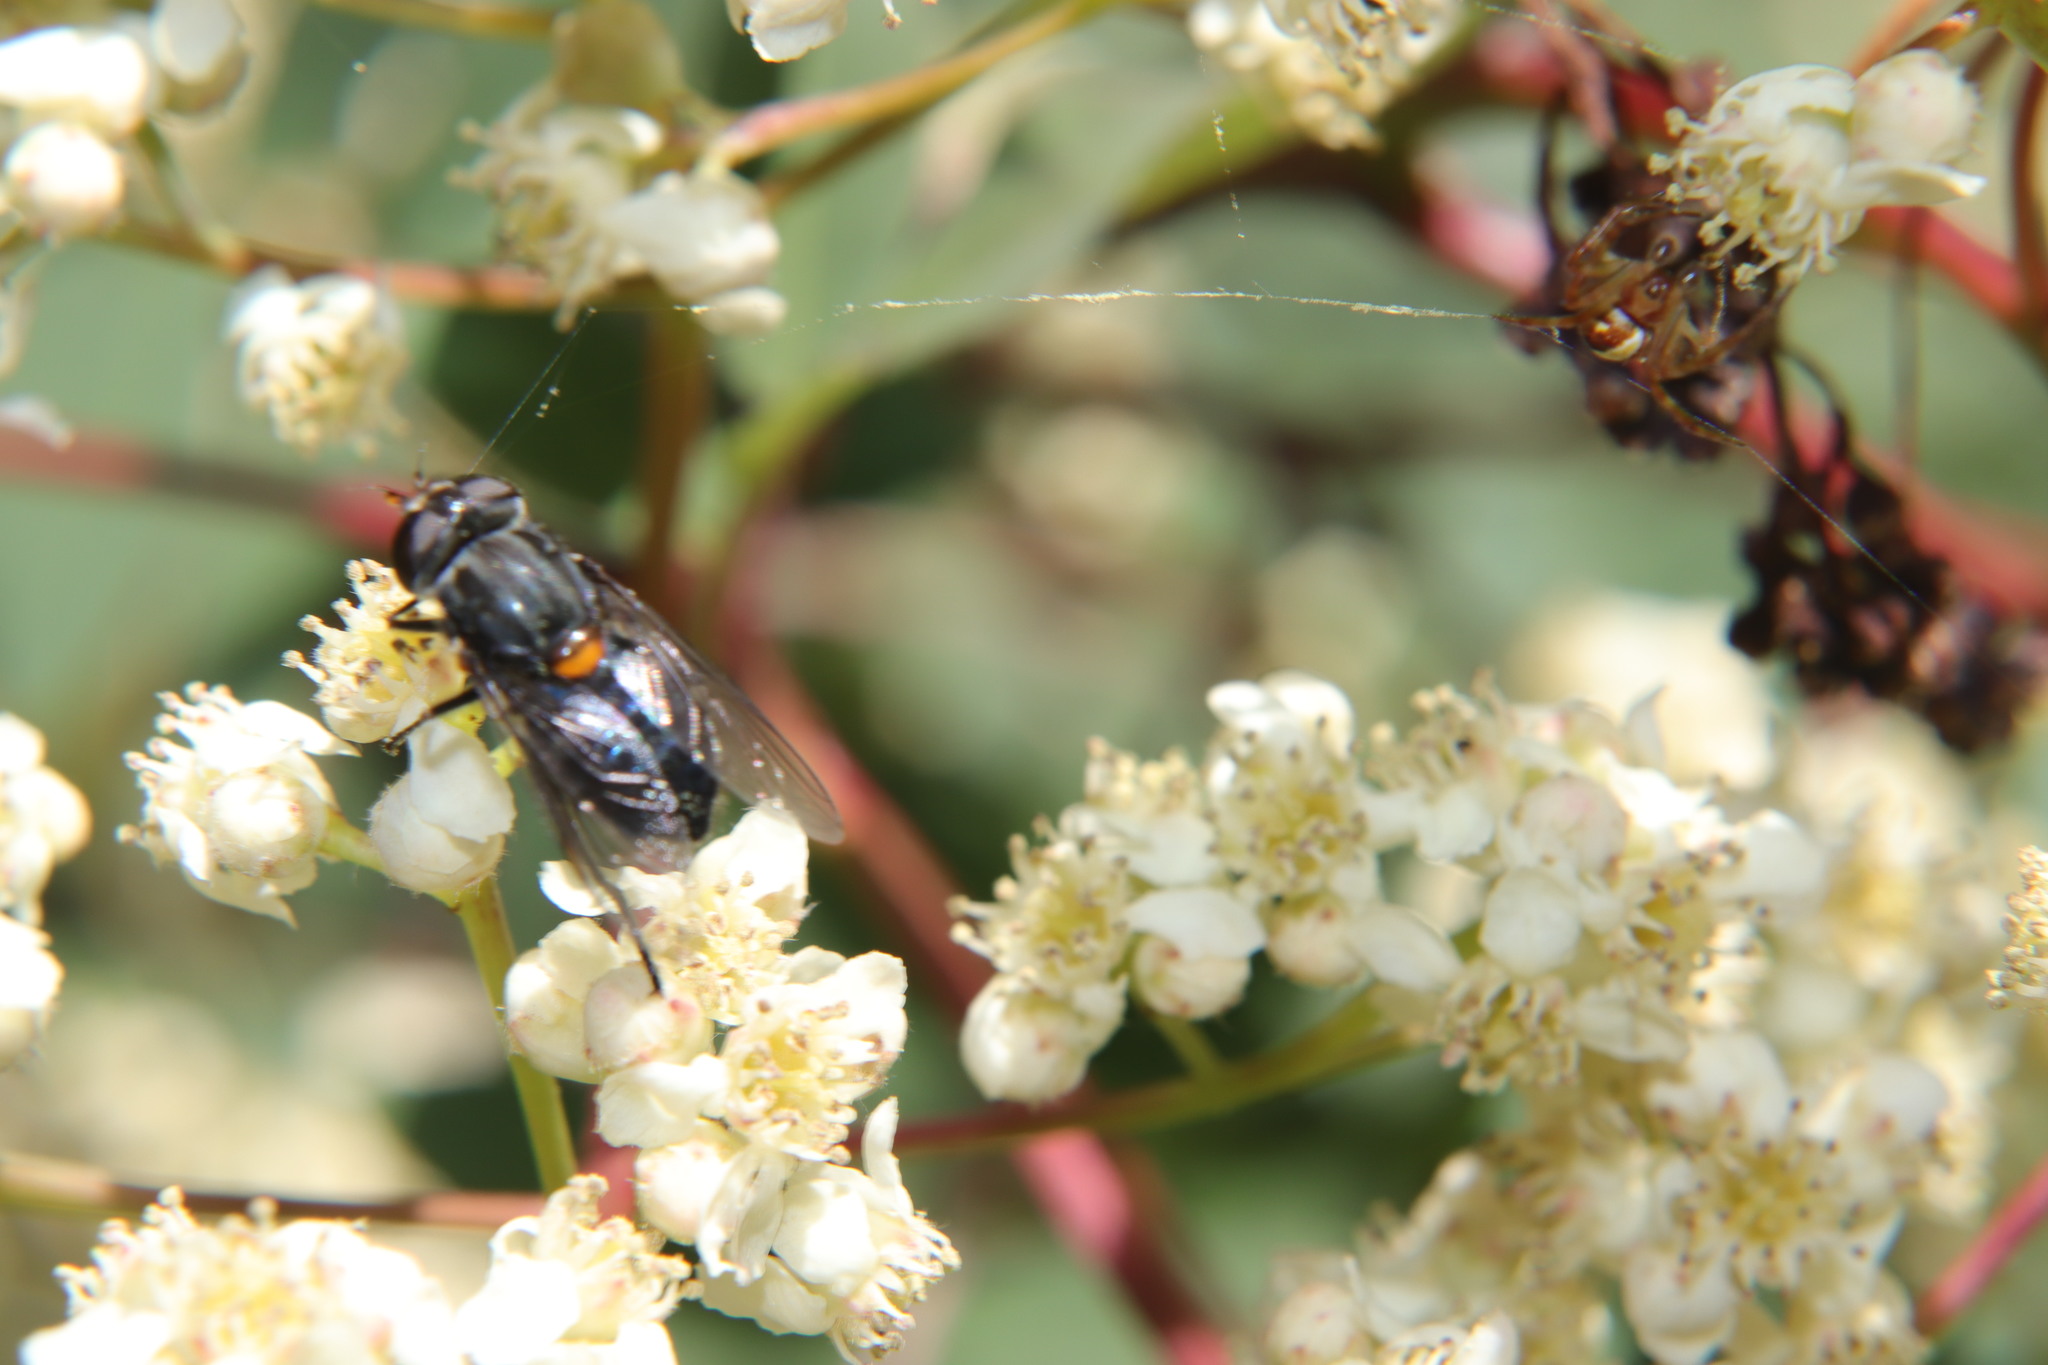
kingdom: Animalia
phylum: Arthropoda
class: Insecta
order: Diptera
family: Syrphidae
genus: Helophilus
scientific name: Helophilus hochstetteri
